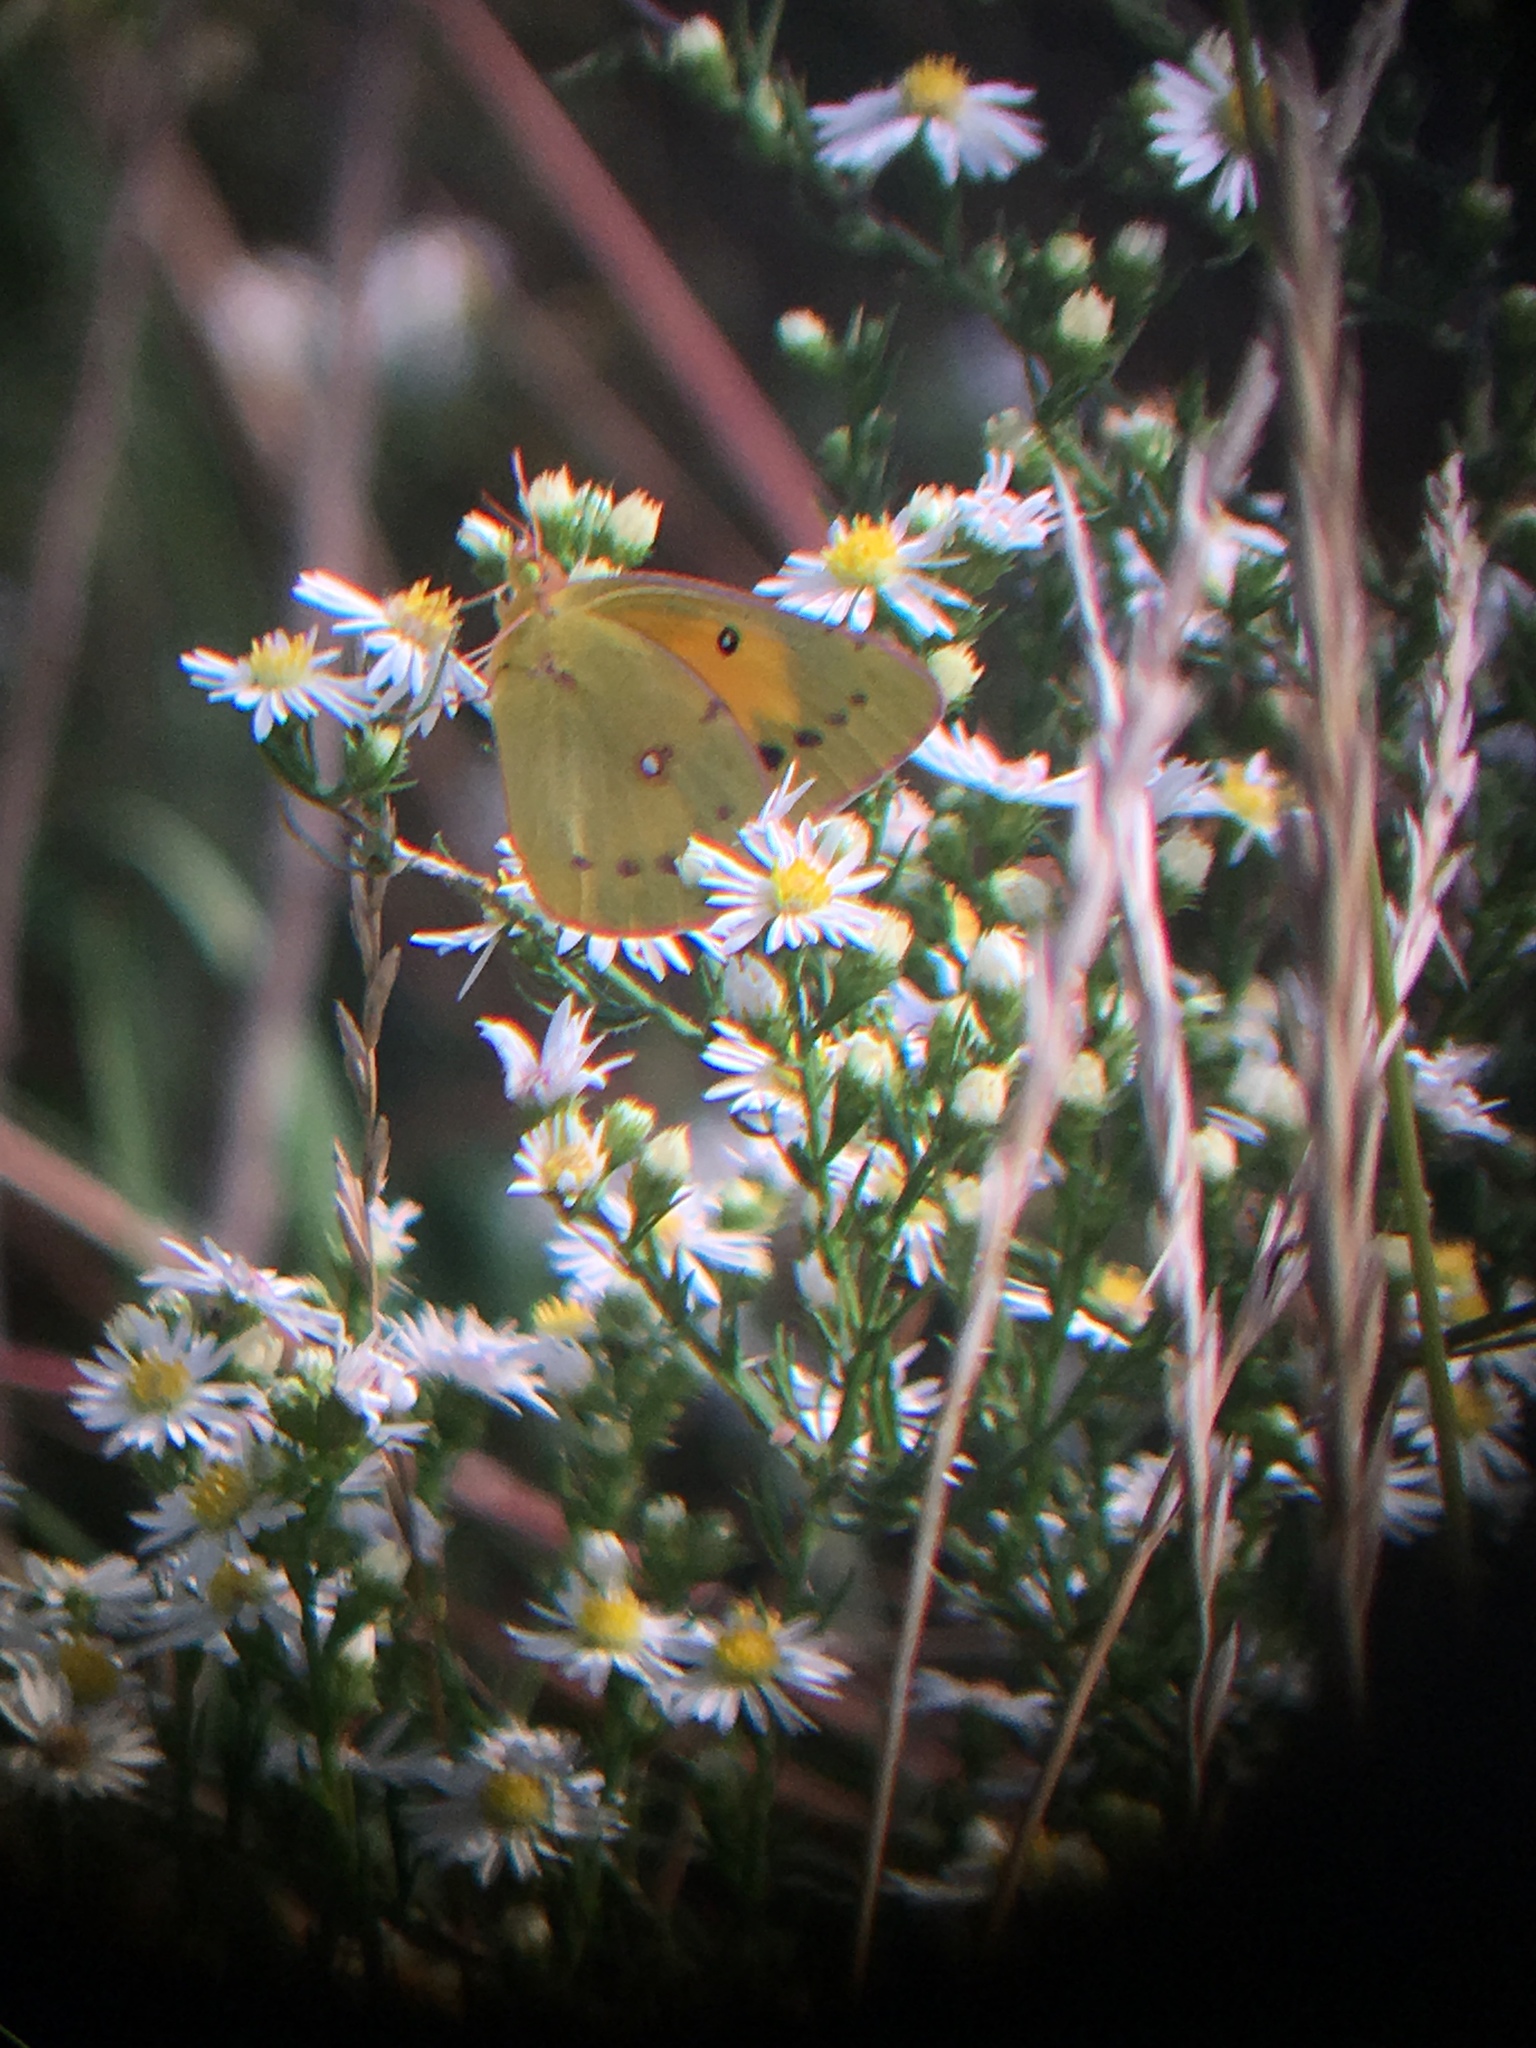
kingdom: Animalia
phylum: Arthropoda
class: Insecta
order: Lepidoptera
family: Pieridae
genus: Colias
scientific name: Colias eurytheme
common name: Alfalfa butterfly
